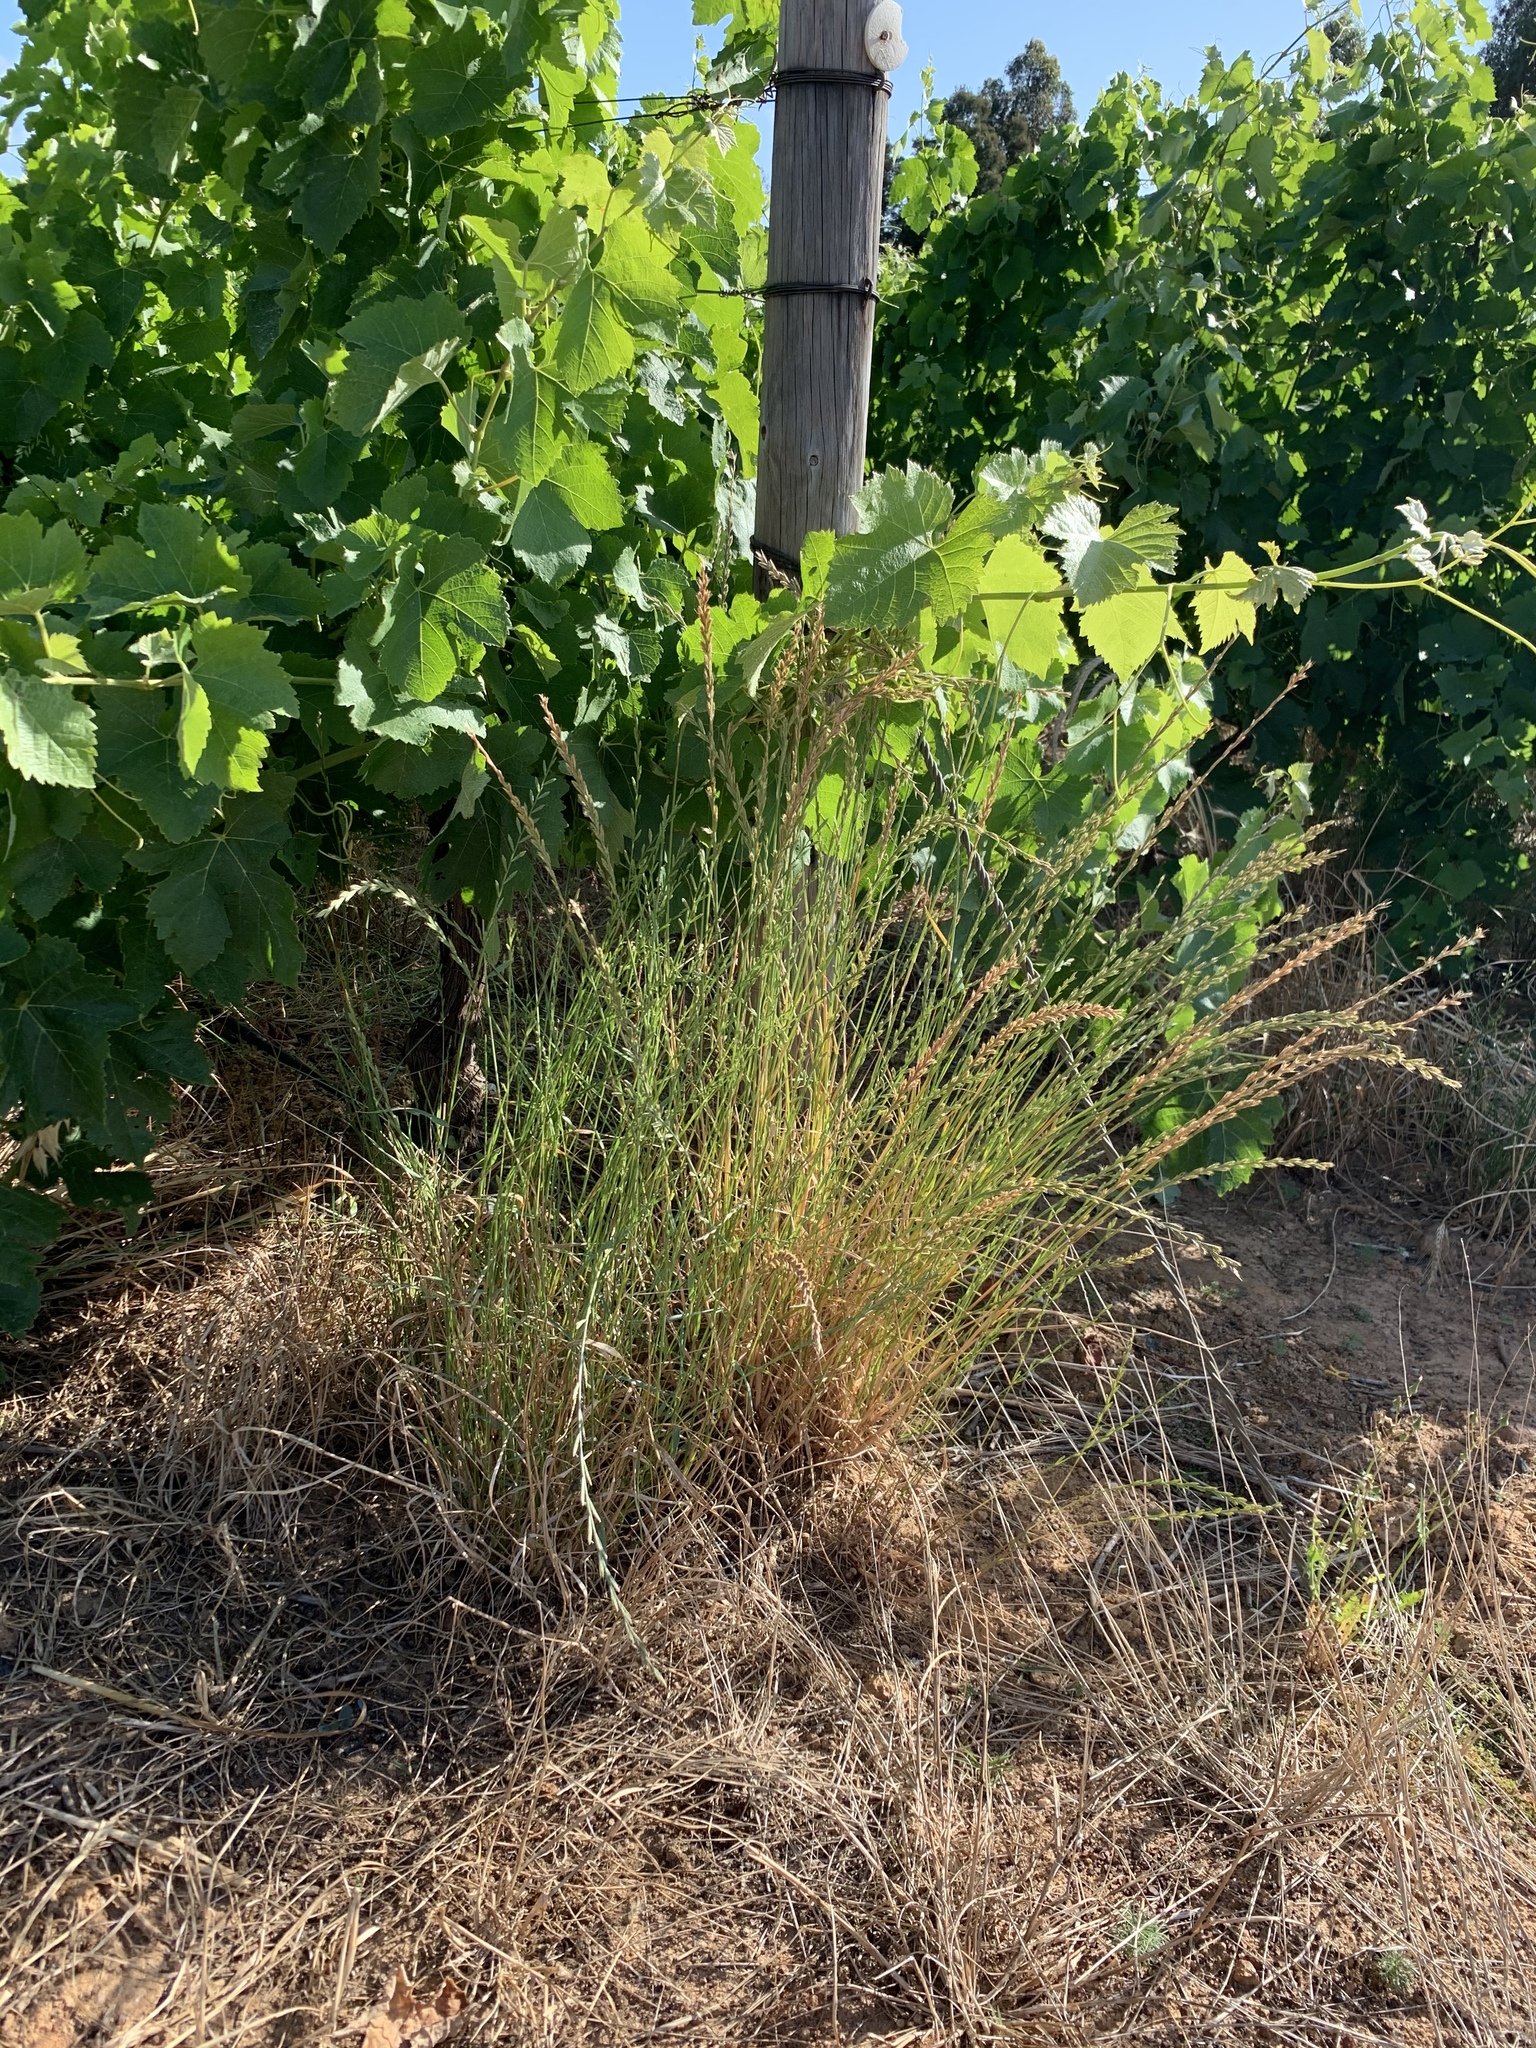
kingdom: Plantae
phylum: Tracheophyta
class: Liliopsida
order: Poales
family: Poaceae
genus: Lolium
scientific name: Lolium multiflorum
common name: Annual ryegrass
